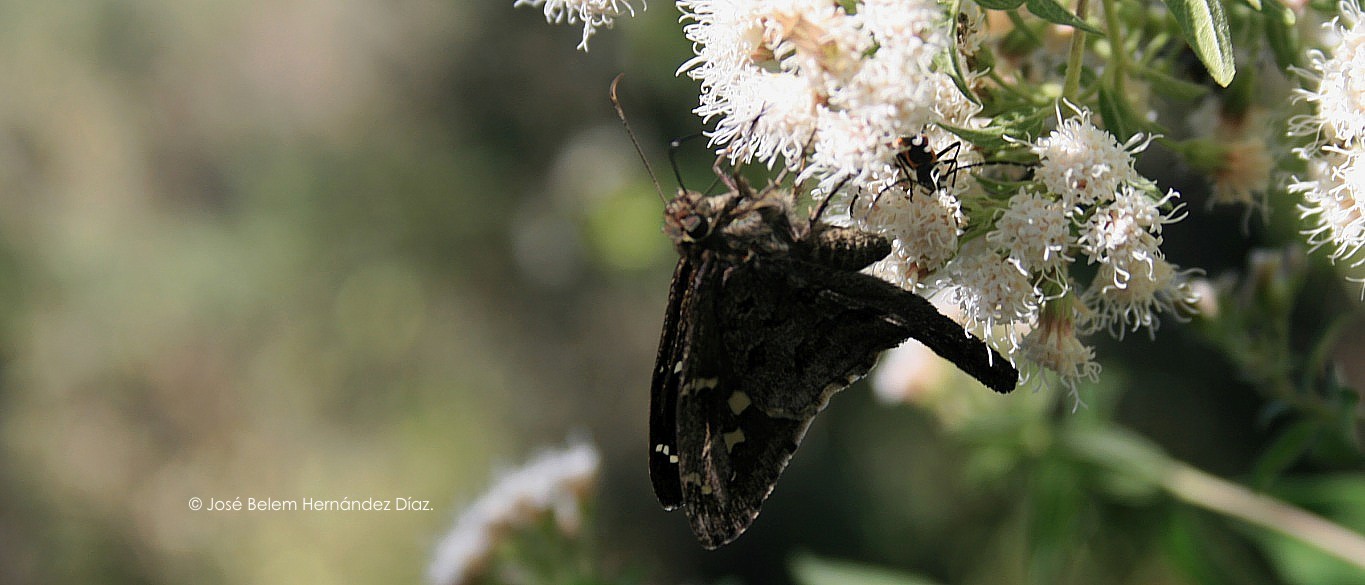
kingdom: Animalia
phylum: Arthropoda
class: Insecta
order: Lepidoptera
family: Hesperiidae
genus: Thorybes
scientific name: Thorybes
